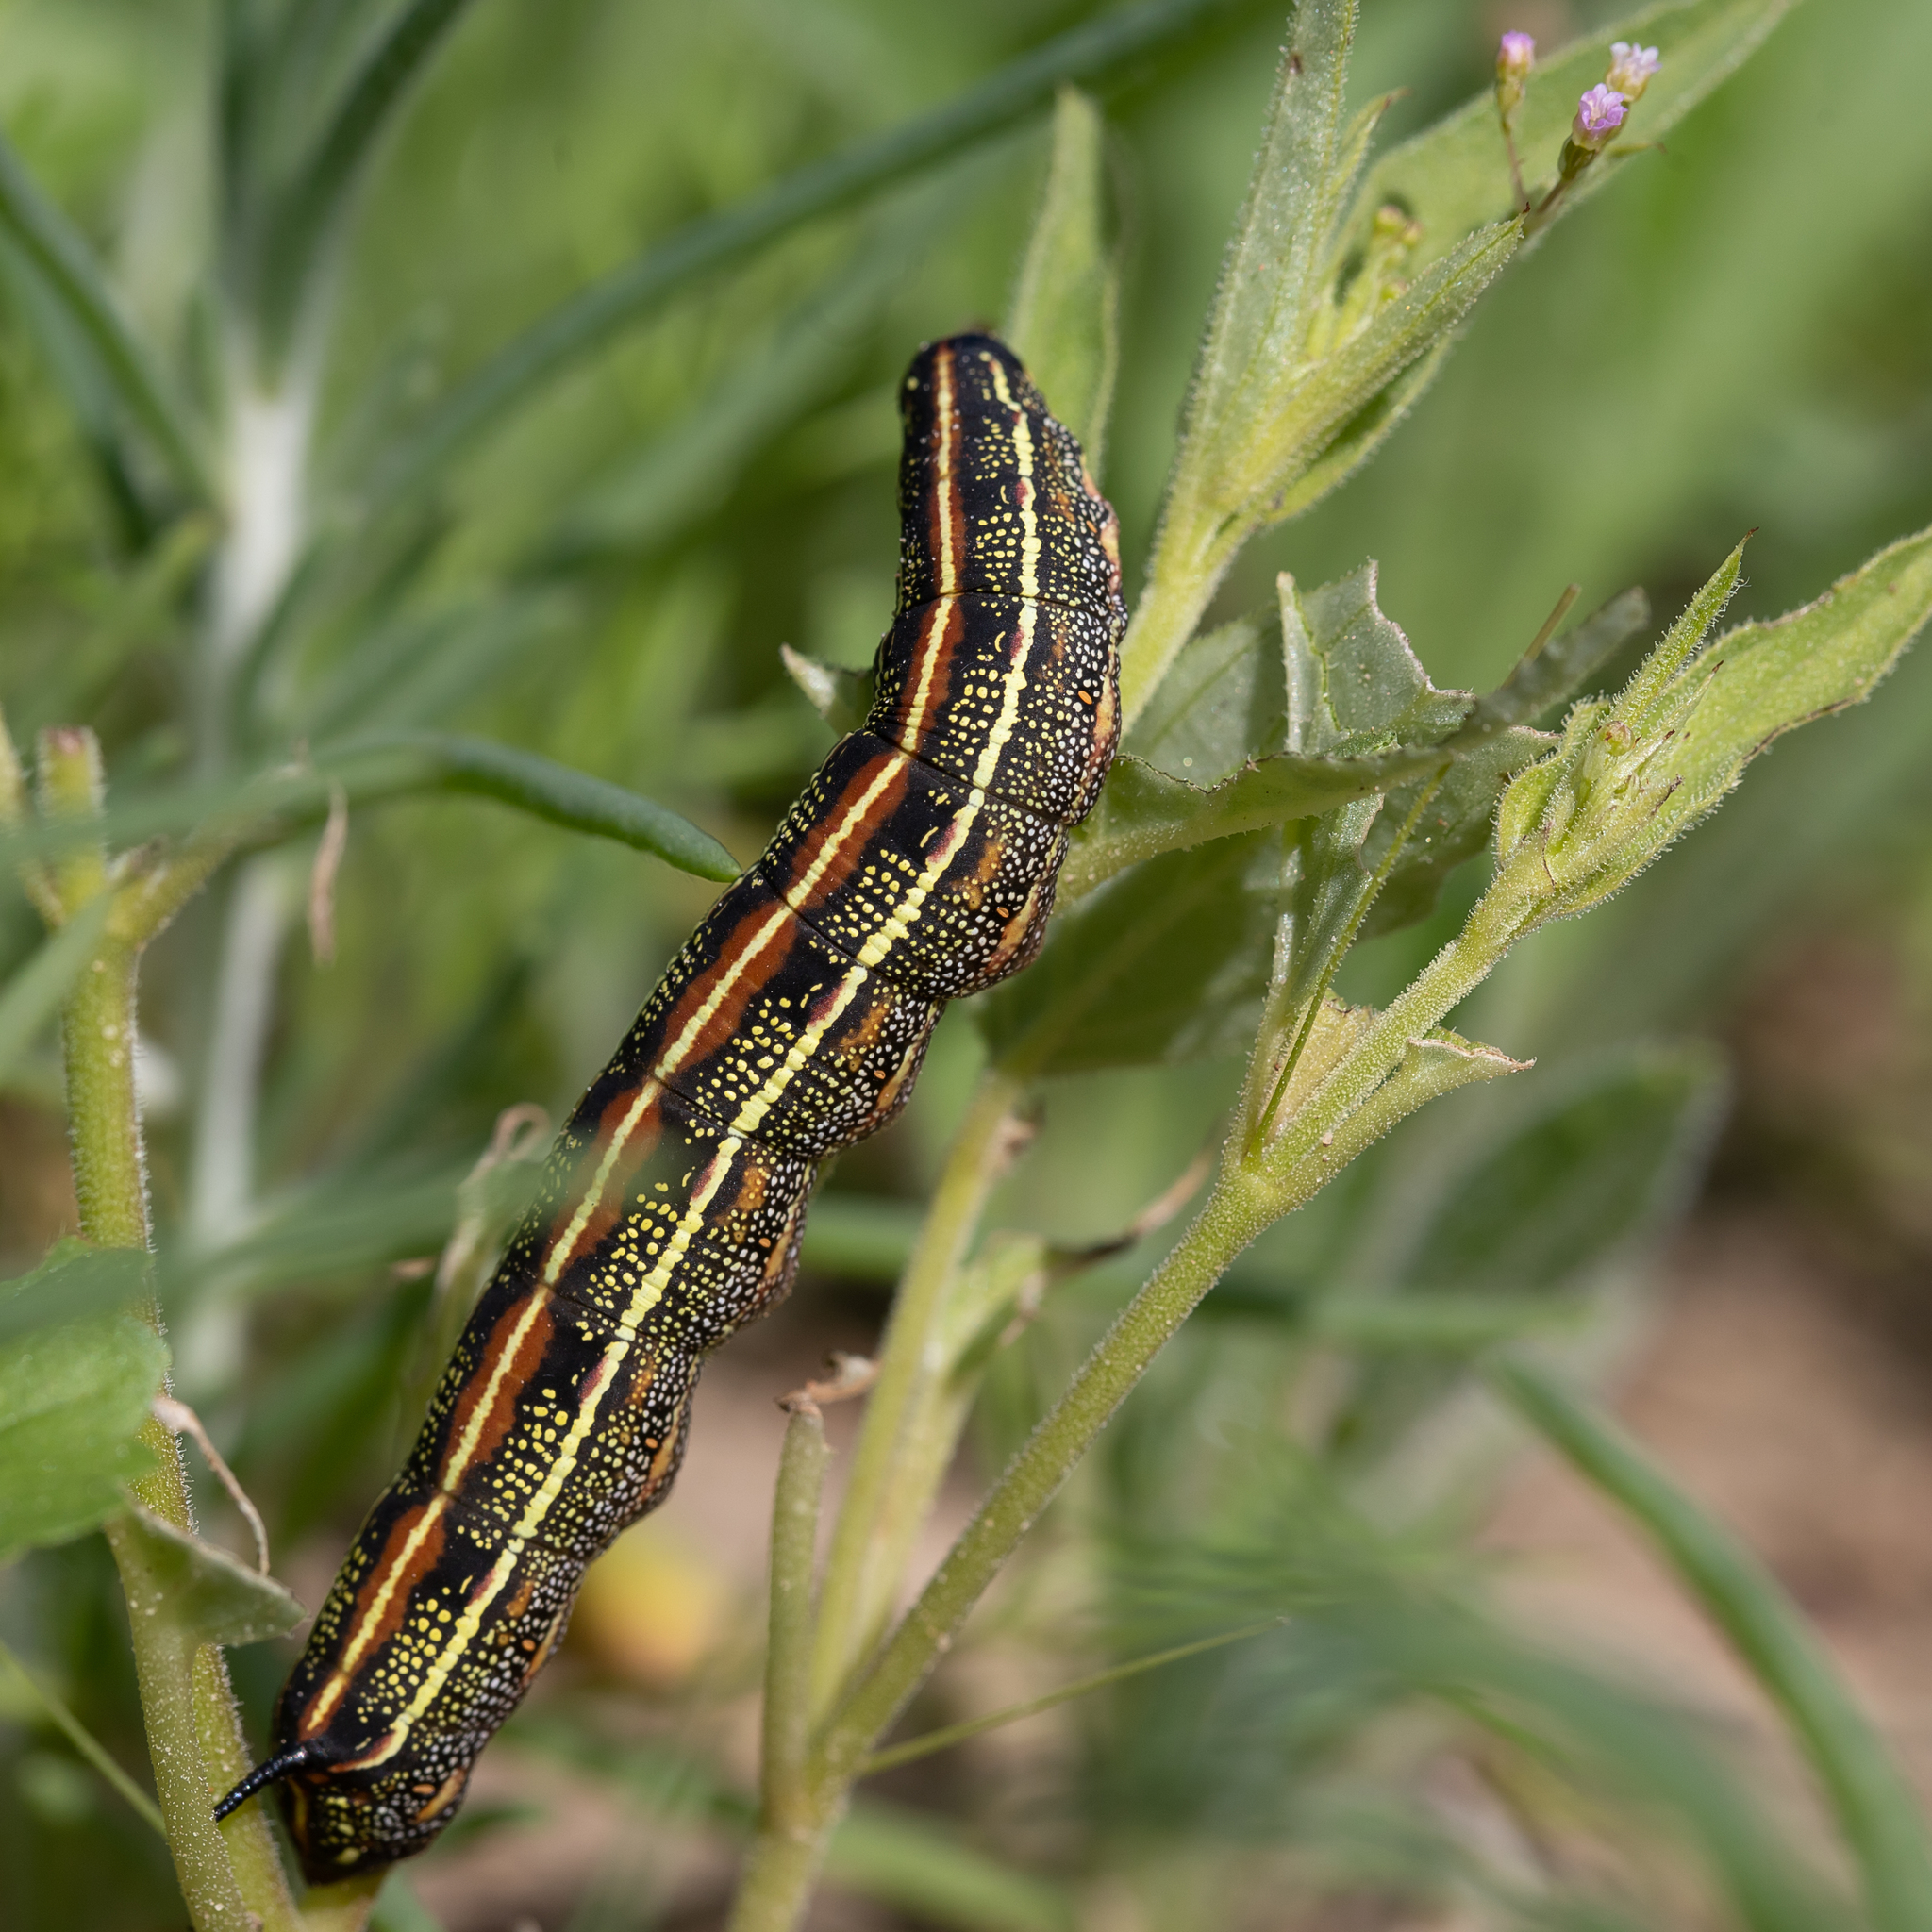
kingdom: Animalia
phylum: Arthropoda
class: Insecta
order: Lepidoptera
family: Sphingidae
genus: Hyles
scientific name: Hyles livornicoides
